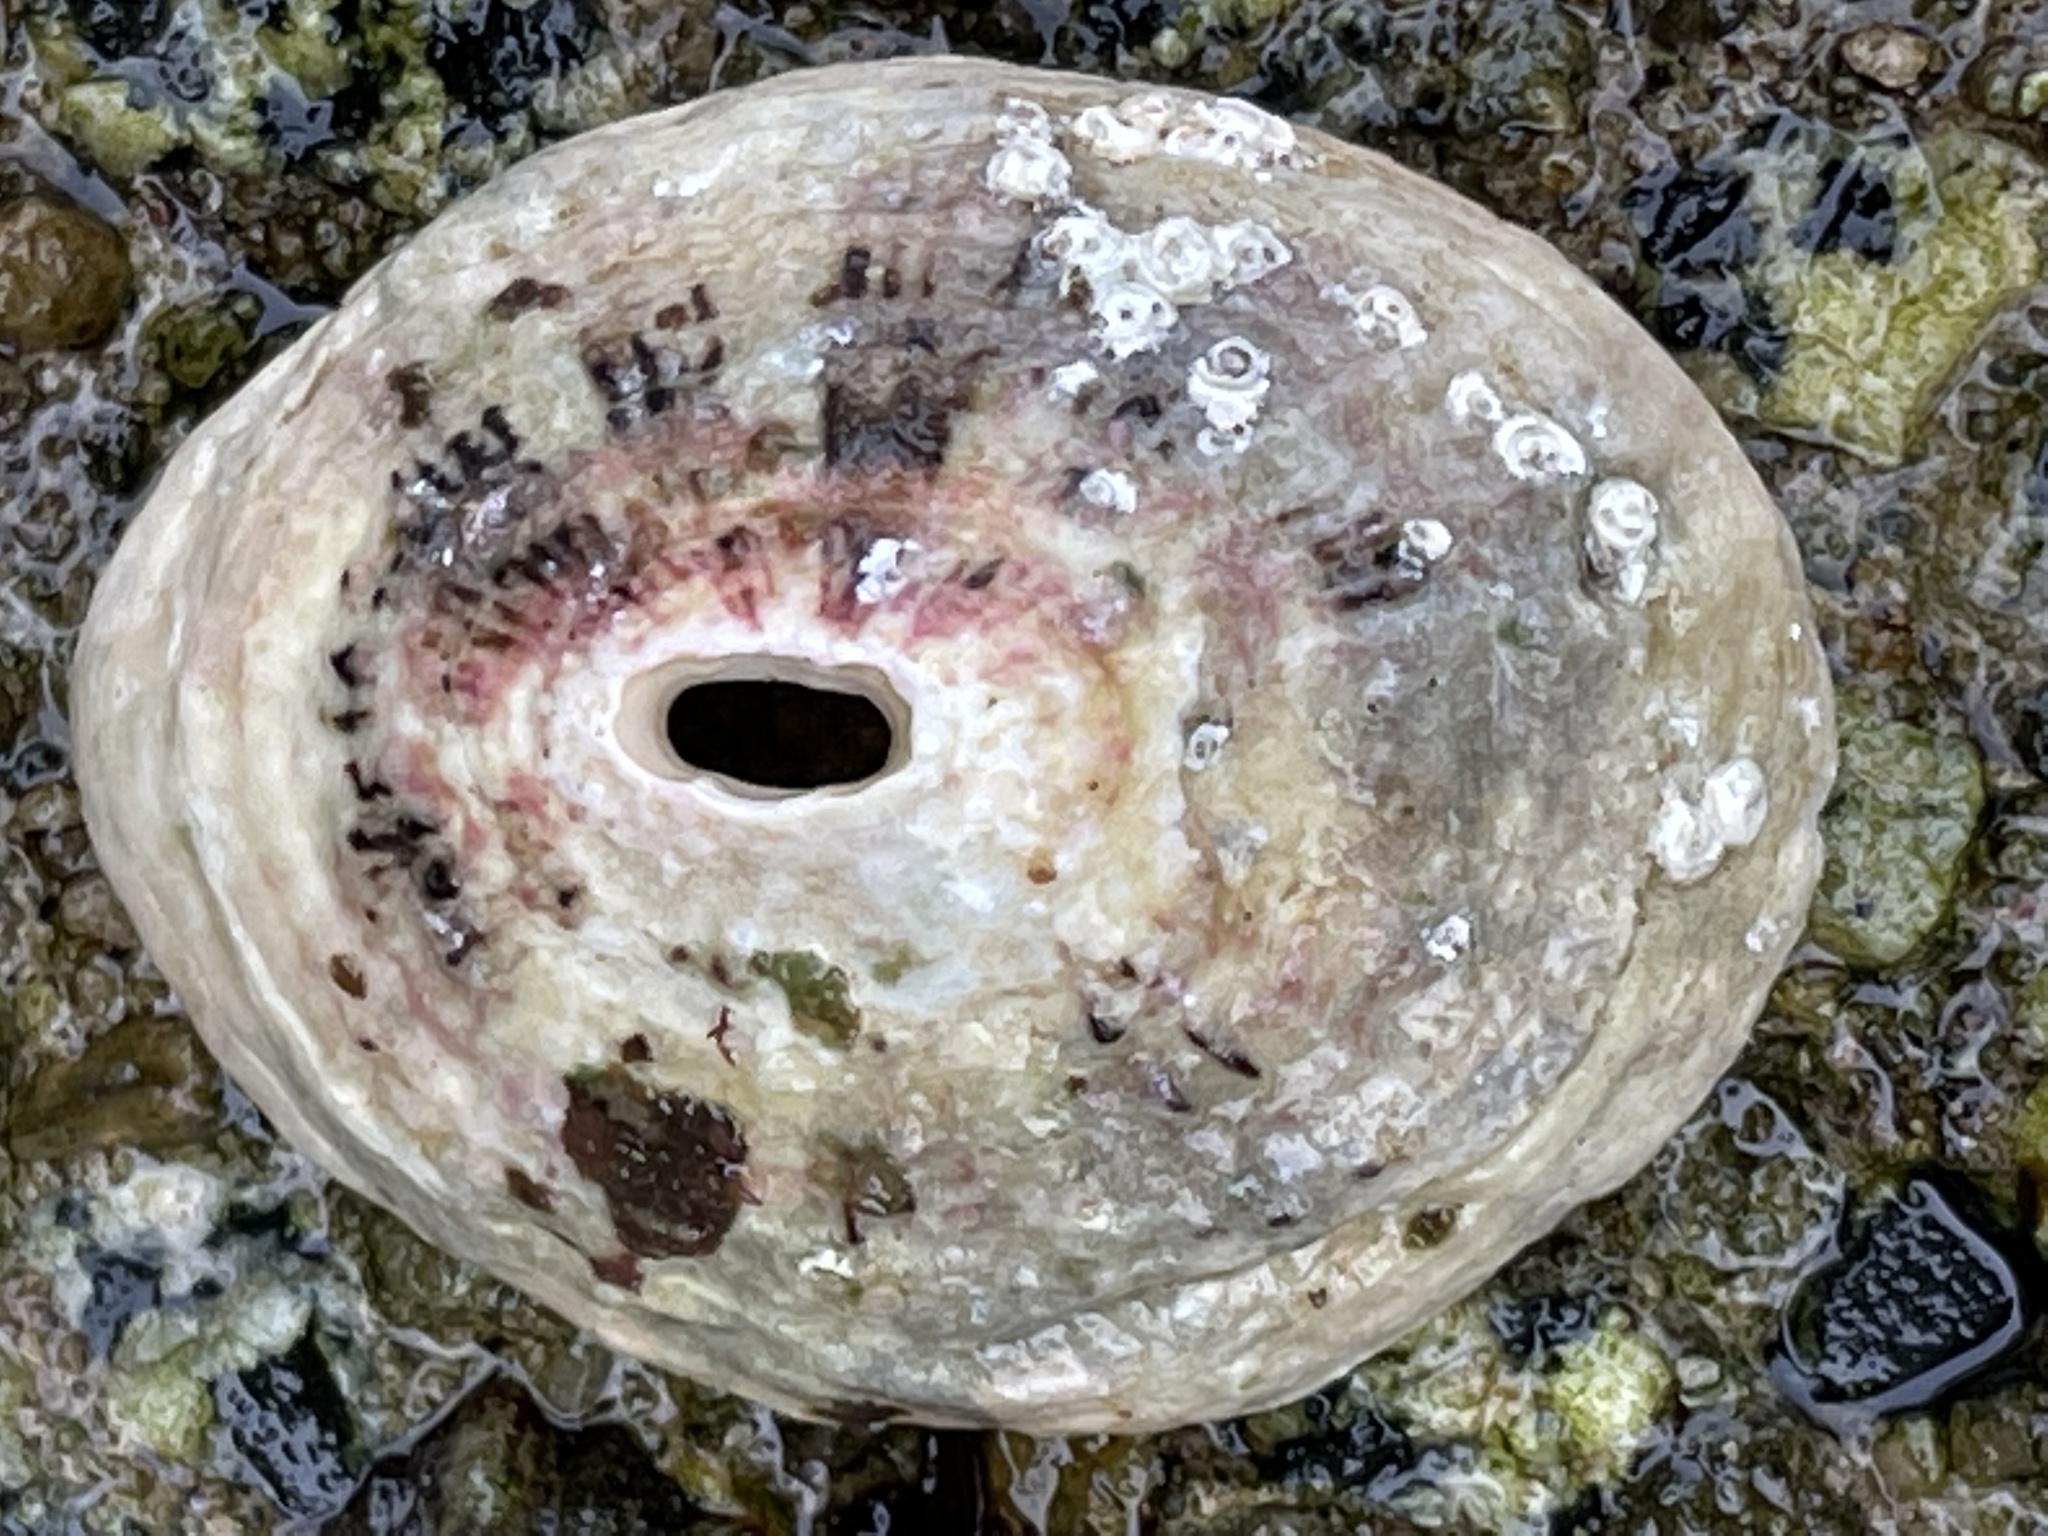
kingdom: Animalia
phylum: Mollusca
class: Gastropoda
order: Lepetellida
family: Fissurellidae
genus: Fissurella
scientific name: Fissurella volcano
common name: Volcano keyhole limpet
